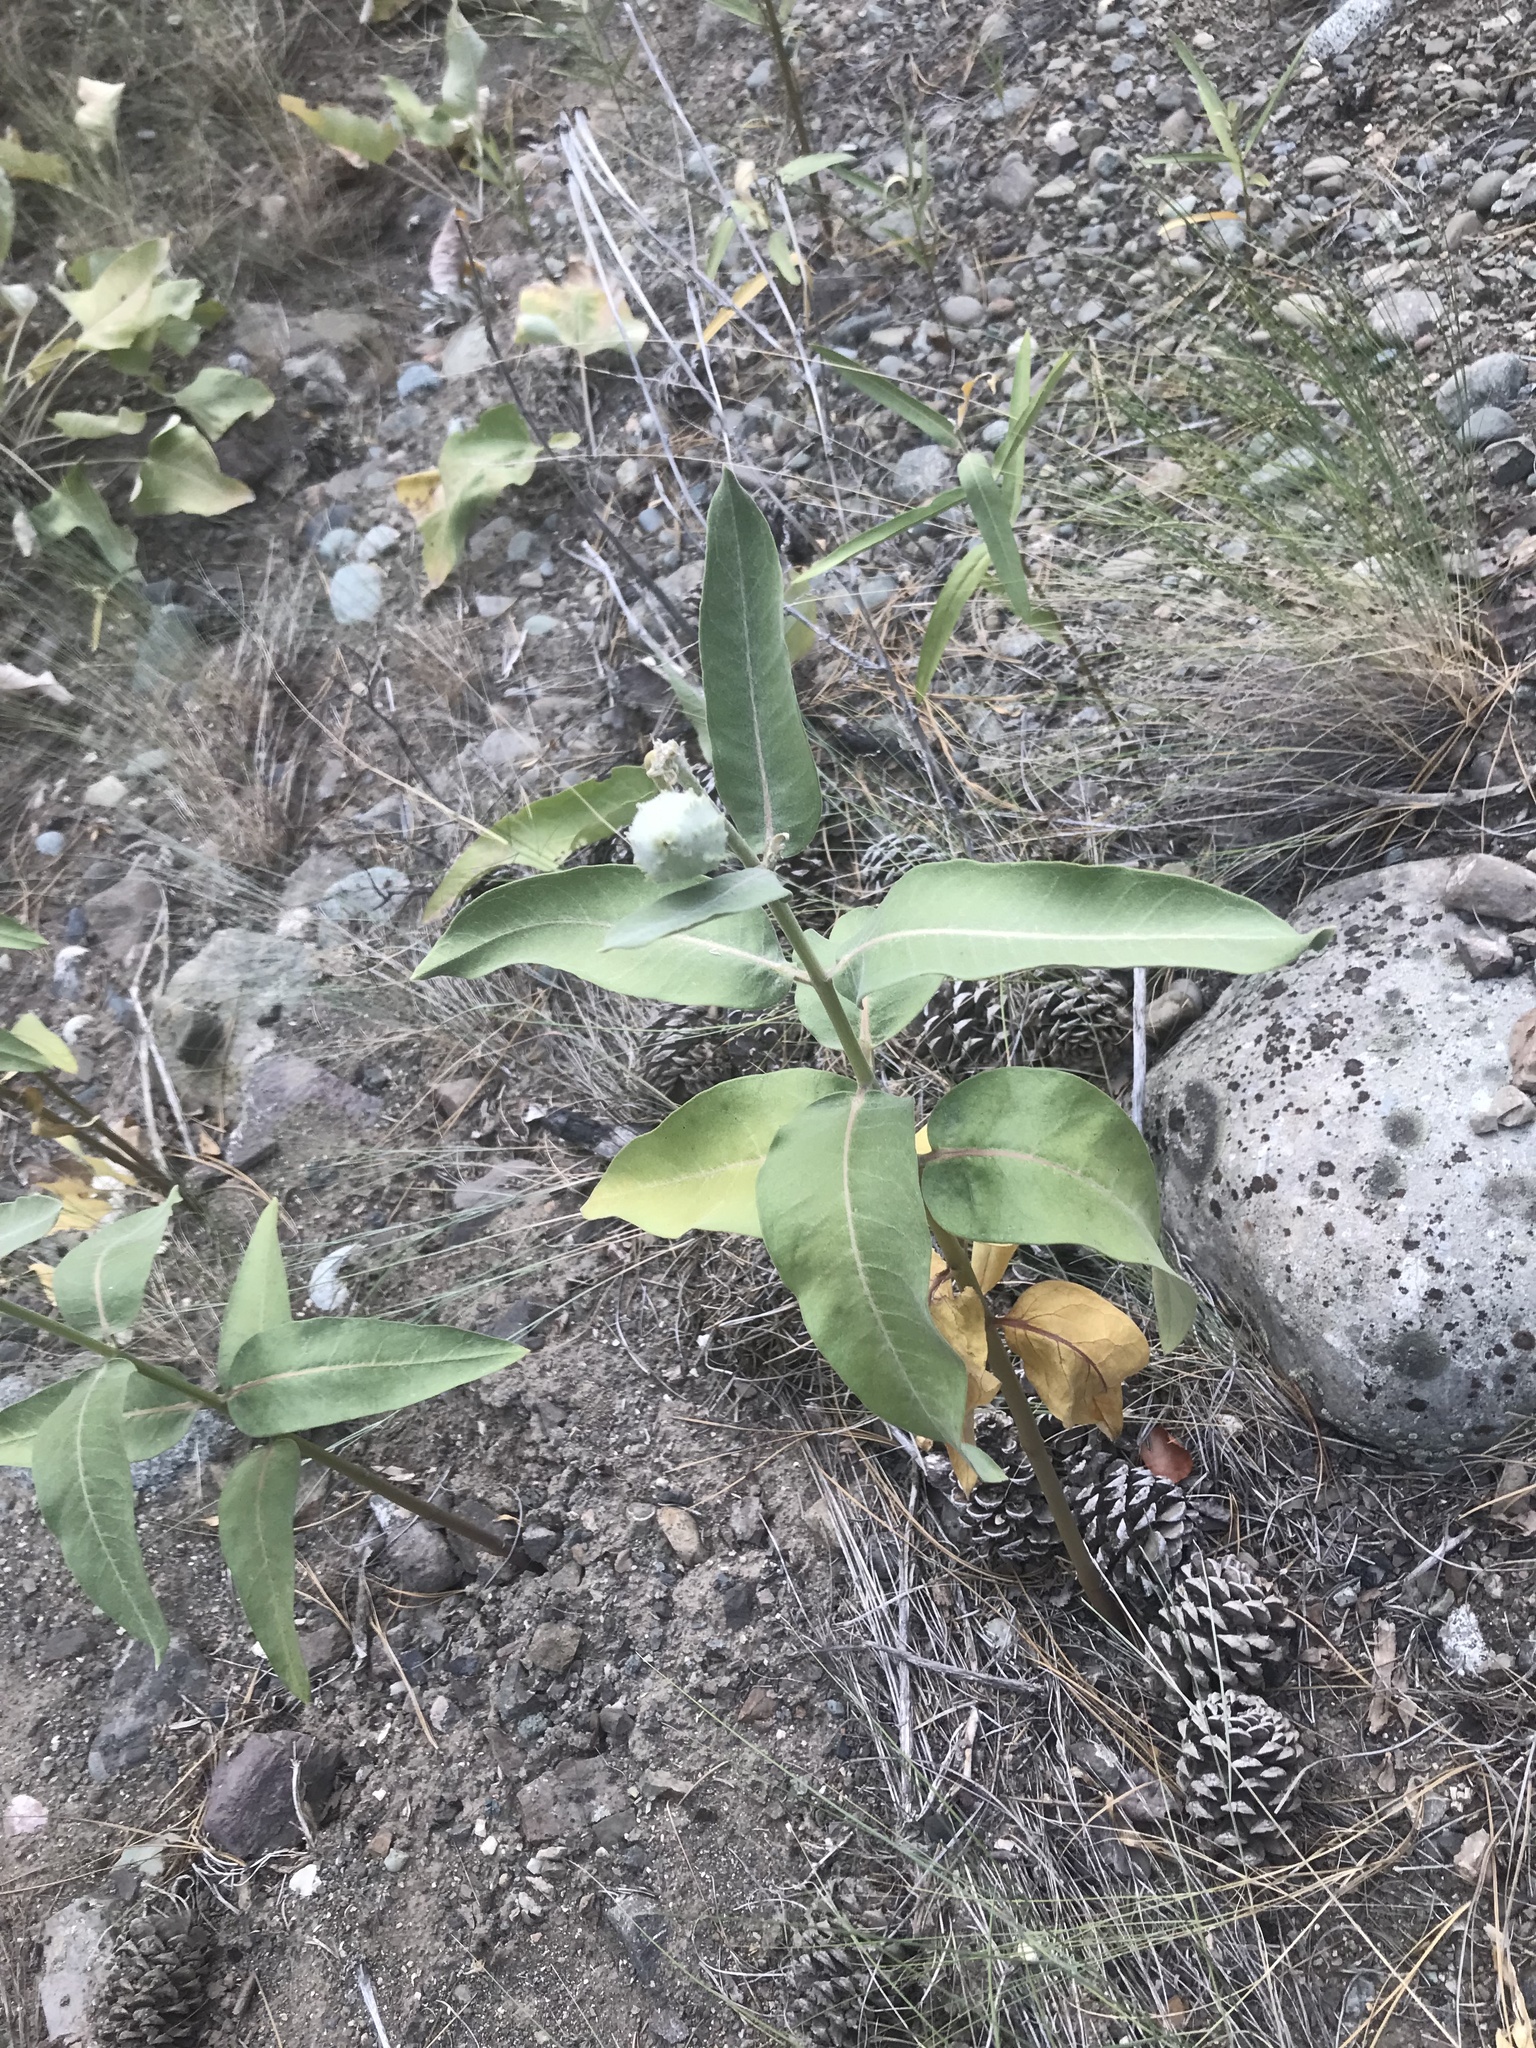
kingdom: Plantae
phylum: Tracheophyta
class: Magnoliopsida
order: Gentianales
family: Apocynaceae
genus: Asclepias
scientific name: Asclepias speciosa
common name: Showy milkweed
